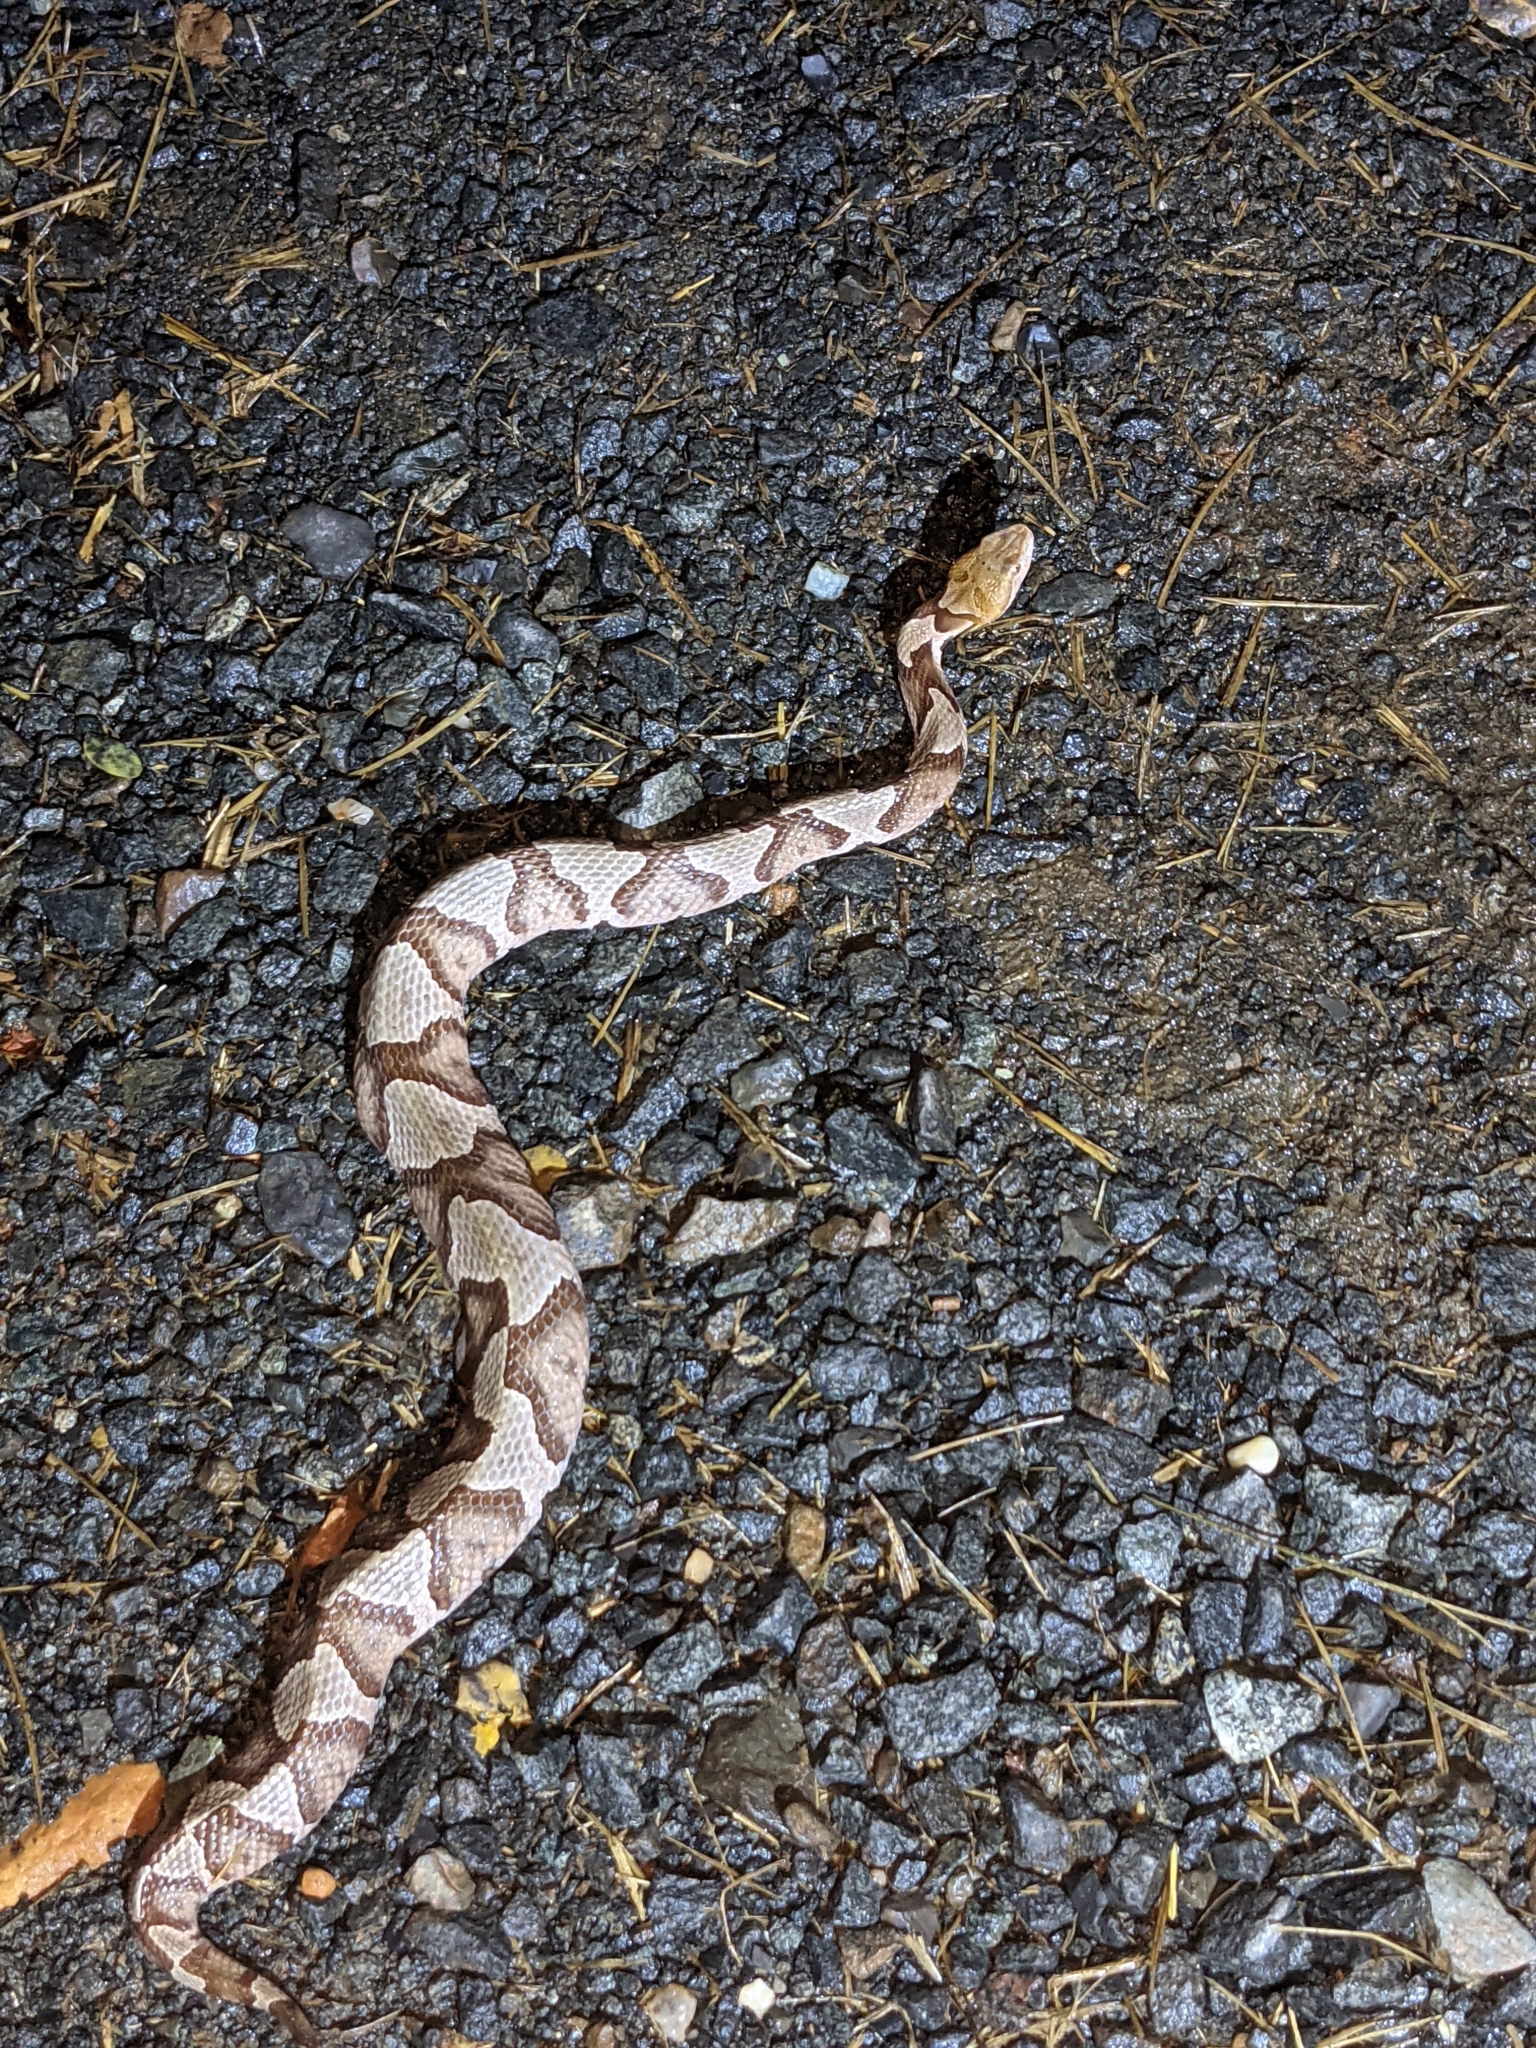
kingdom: Animalia
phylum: Chordata
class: Squamata
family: Viperidae
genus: Agkistrodon
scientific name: Agkistrodon contortrix
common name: Northern copperhead
